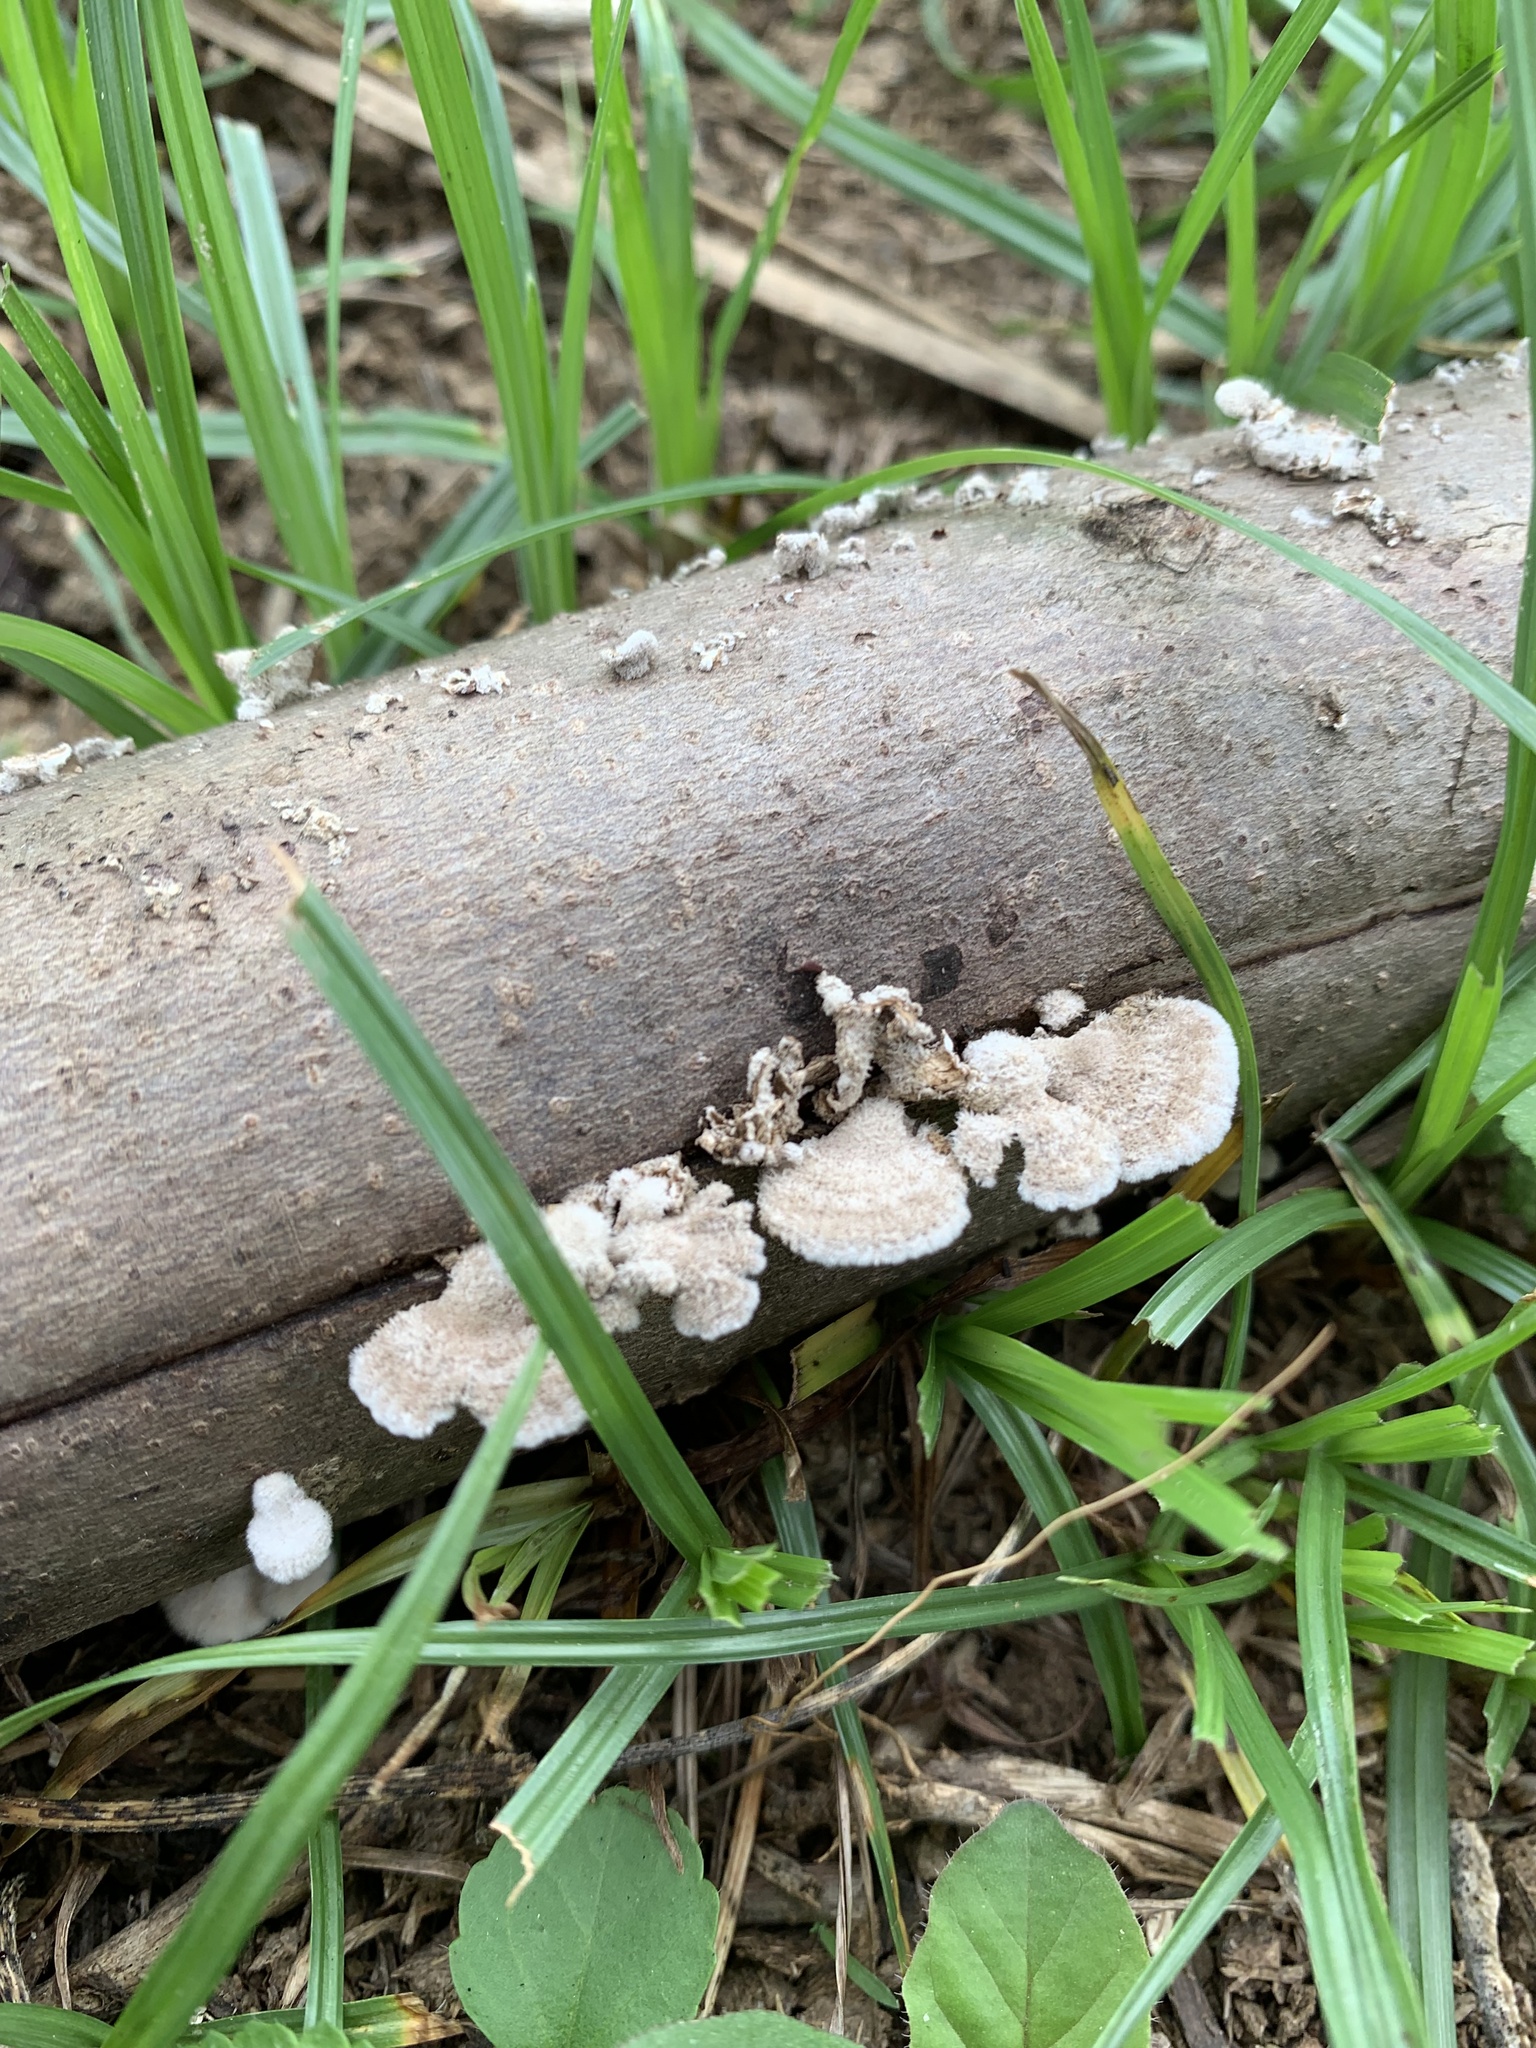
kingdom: Fungi
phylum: Basidiomycota
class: Agaricomycetes
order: Agaricales
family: Schizophyllaceae
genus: Schizophyllum
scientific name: Schizophyllum commune
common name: Common porecrust
